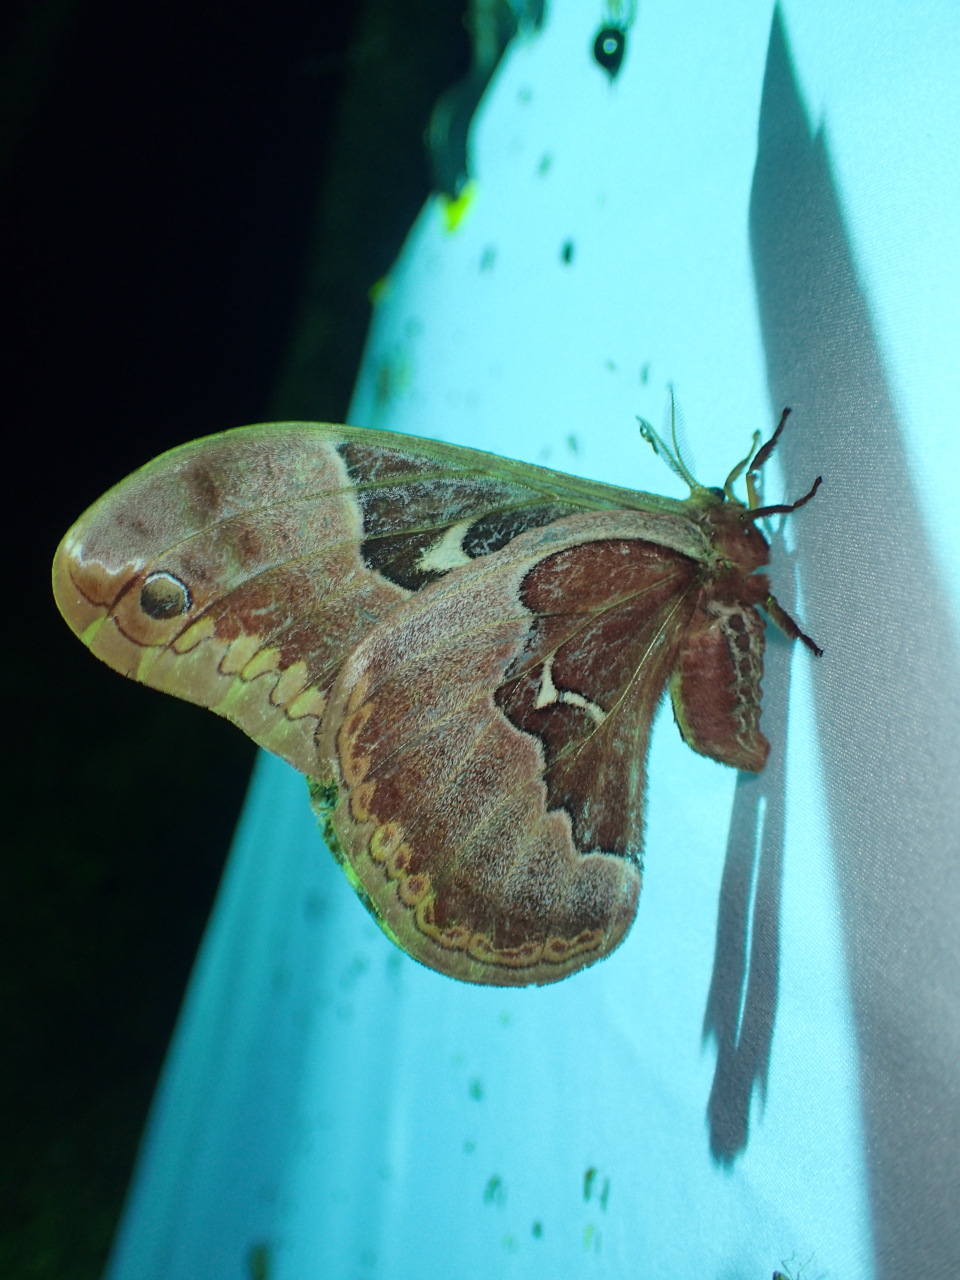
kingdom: Animalia
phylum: Arthropoda
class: Insecta
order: Lepidoptera
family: Saturniidae
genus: Callosamia
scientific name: Callosamia angulifera
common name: Tulip tree silkmoth
